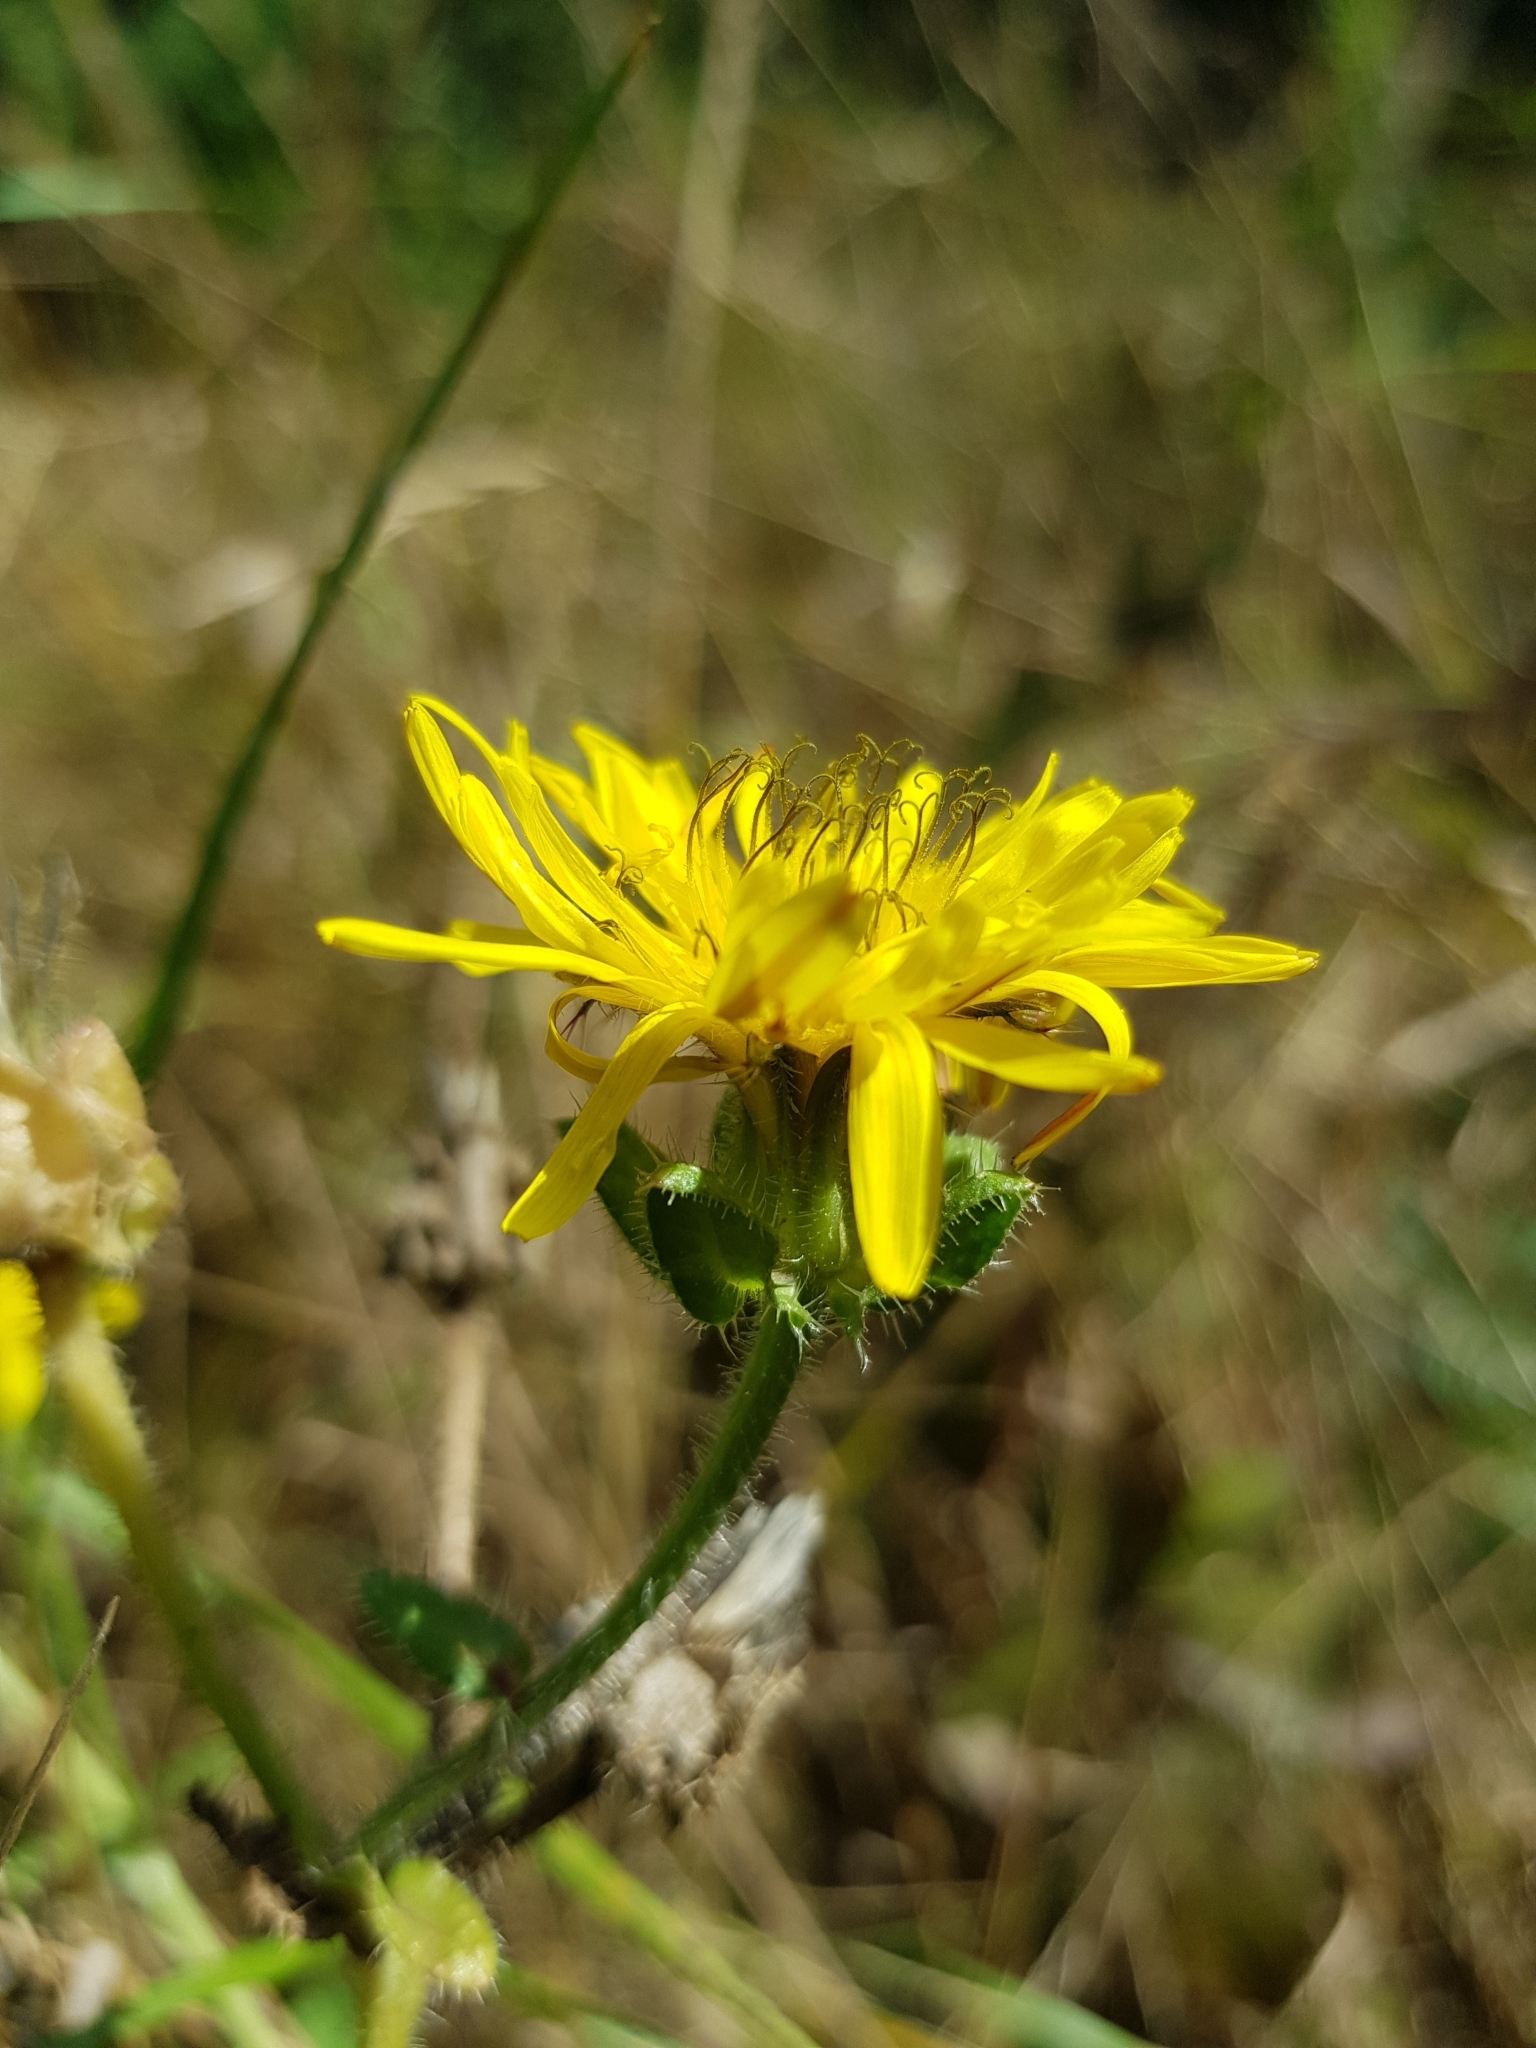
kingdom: Plantae
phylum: Tracheophyta
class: Magnoliopsida
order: Asterales
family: Asteraceae
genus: Helminthotheca
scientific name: Helminthotheca echioides
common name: Ox-tongue
